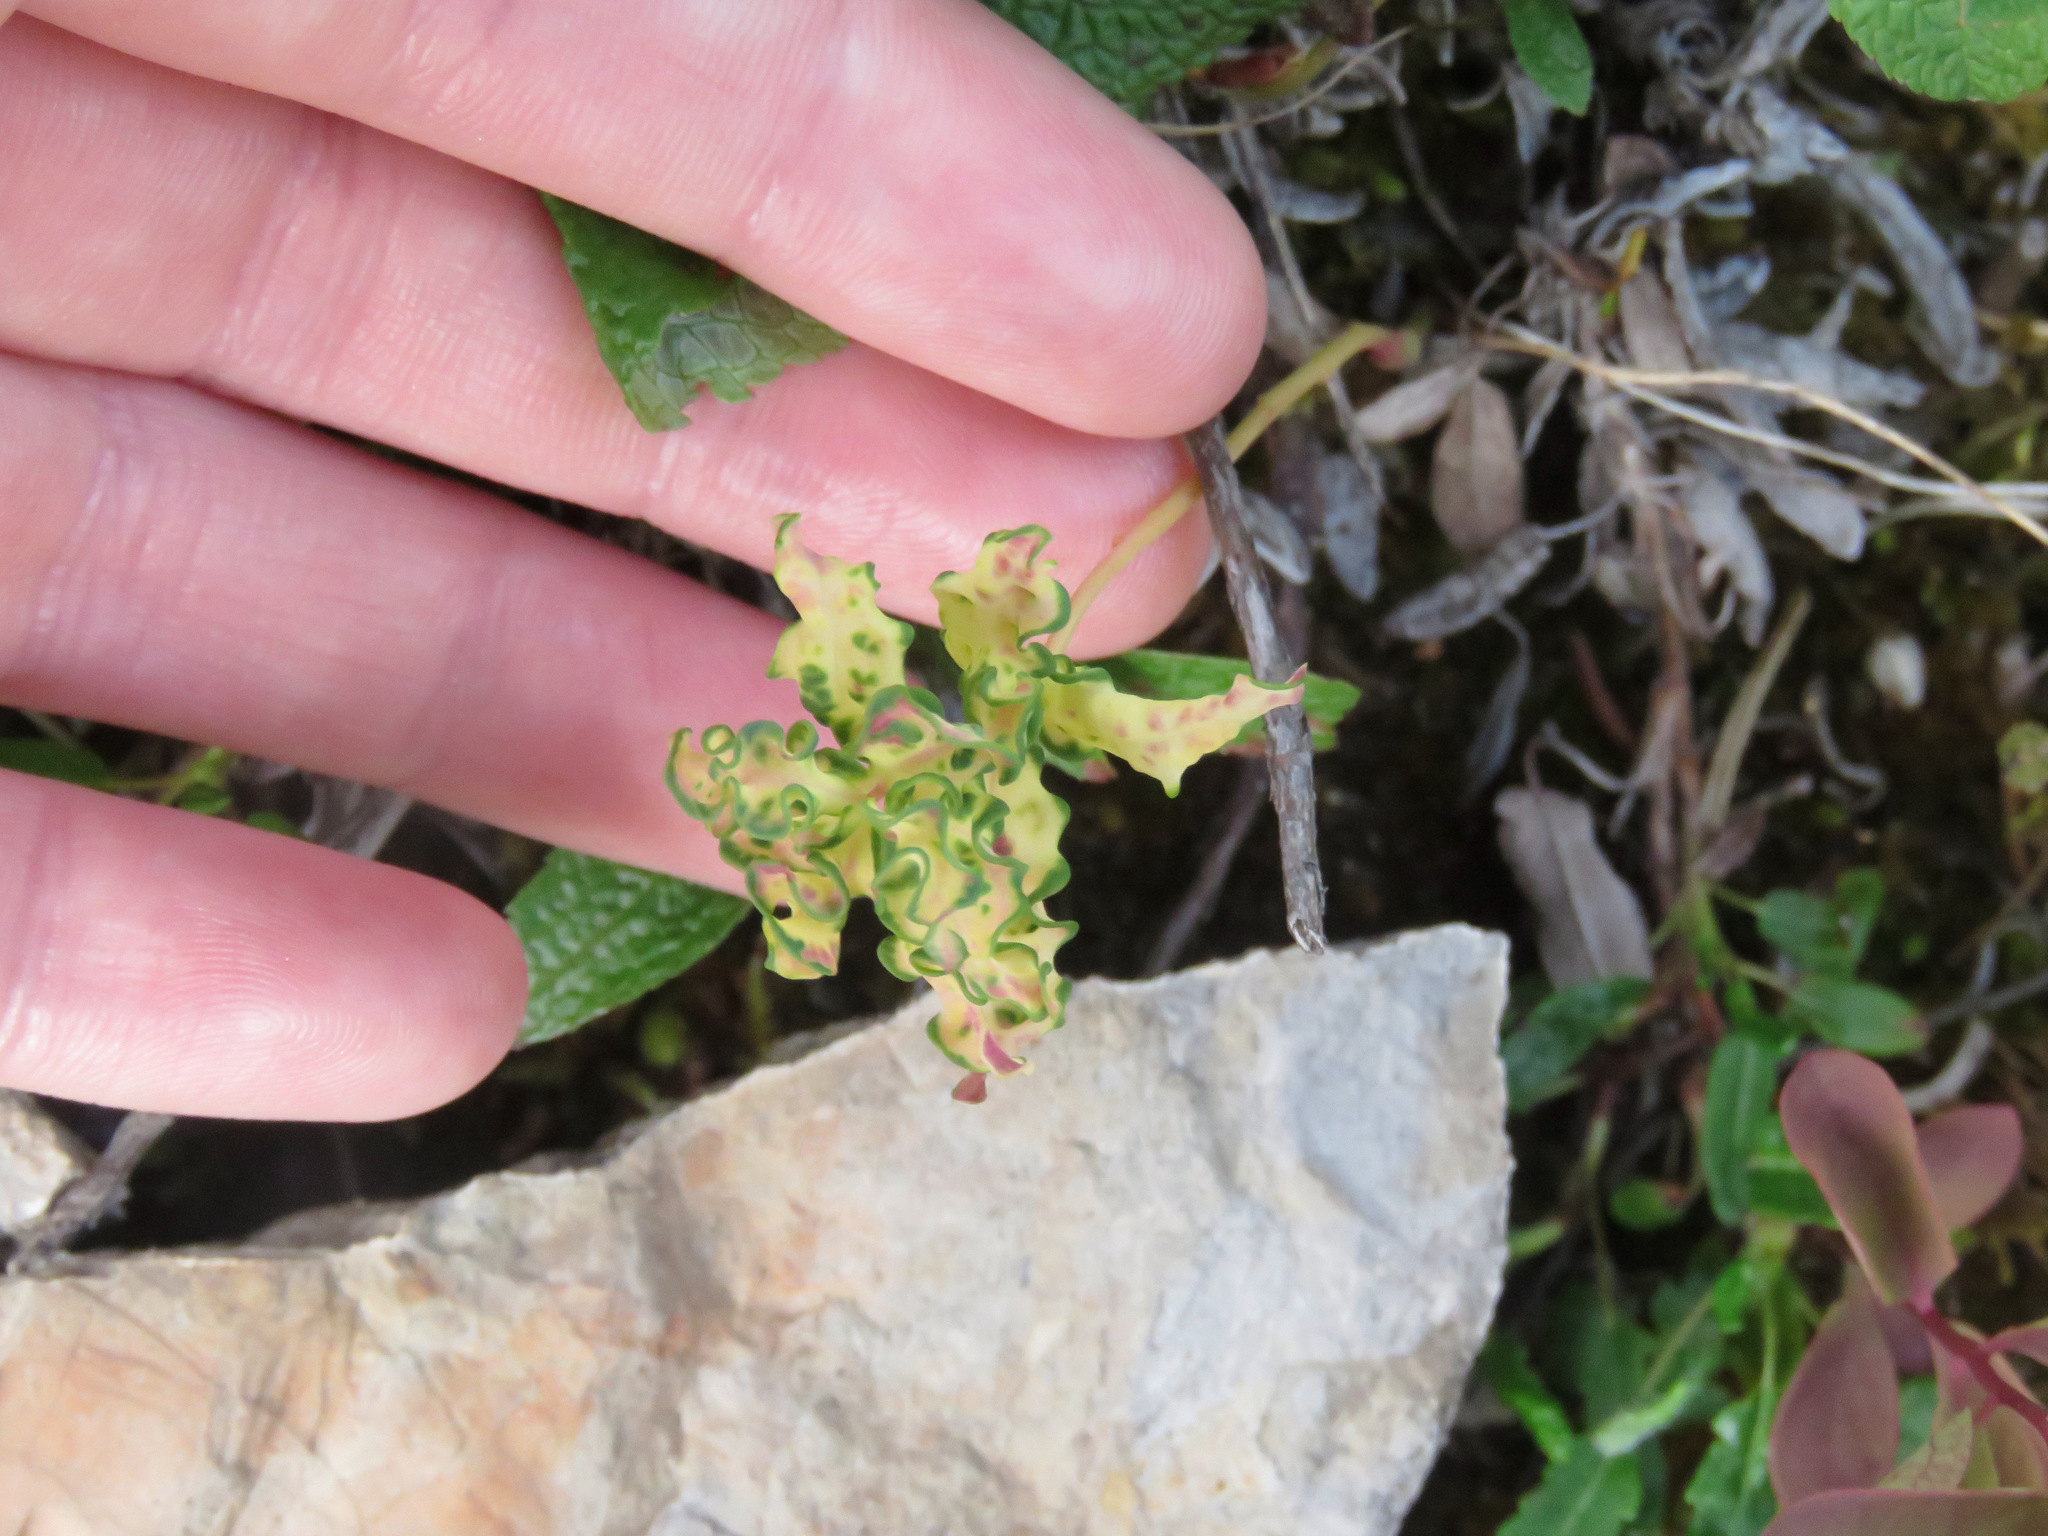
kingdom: Plantae
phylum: Tracheophyta
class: Magnoliopsida
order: Santalales
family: Comandraceae
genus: Geocaulon
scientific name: Geocaulon lividum
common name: Earthberry
